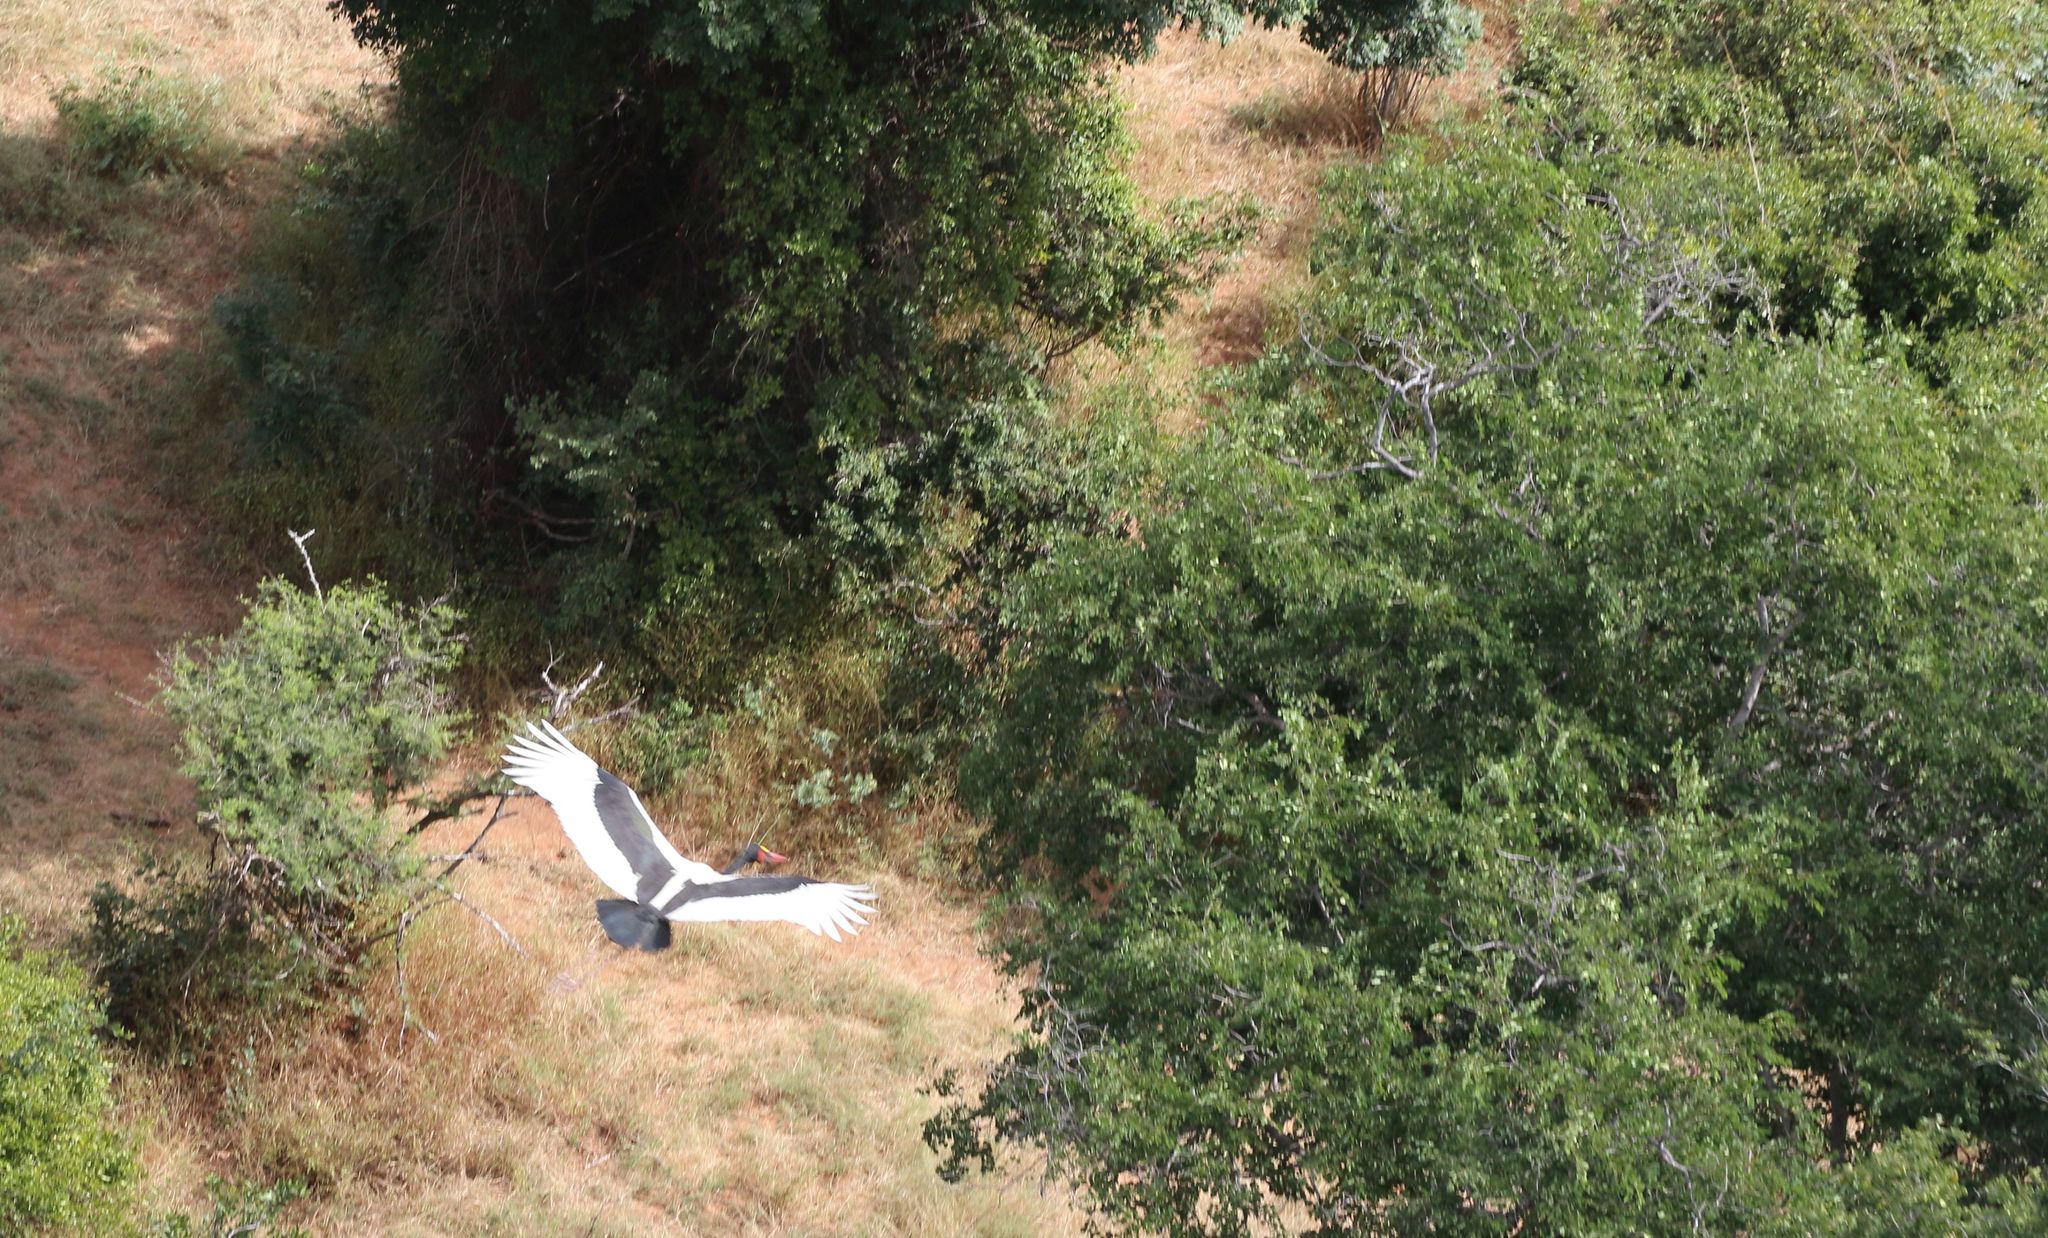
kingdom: Animalia
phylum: Chordata
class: Aves
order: Ciconiiformes
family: Ciconiidae
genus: Ephippiorhynchus
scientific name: Ephippiorhynchus senegalensis
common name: Saddle-billed stork
